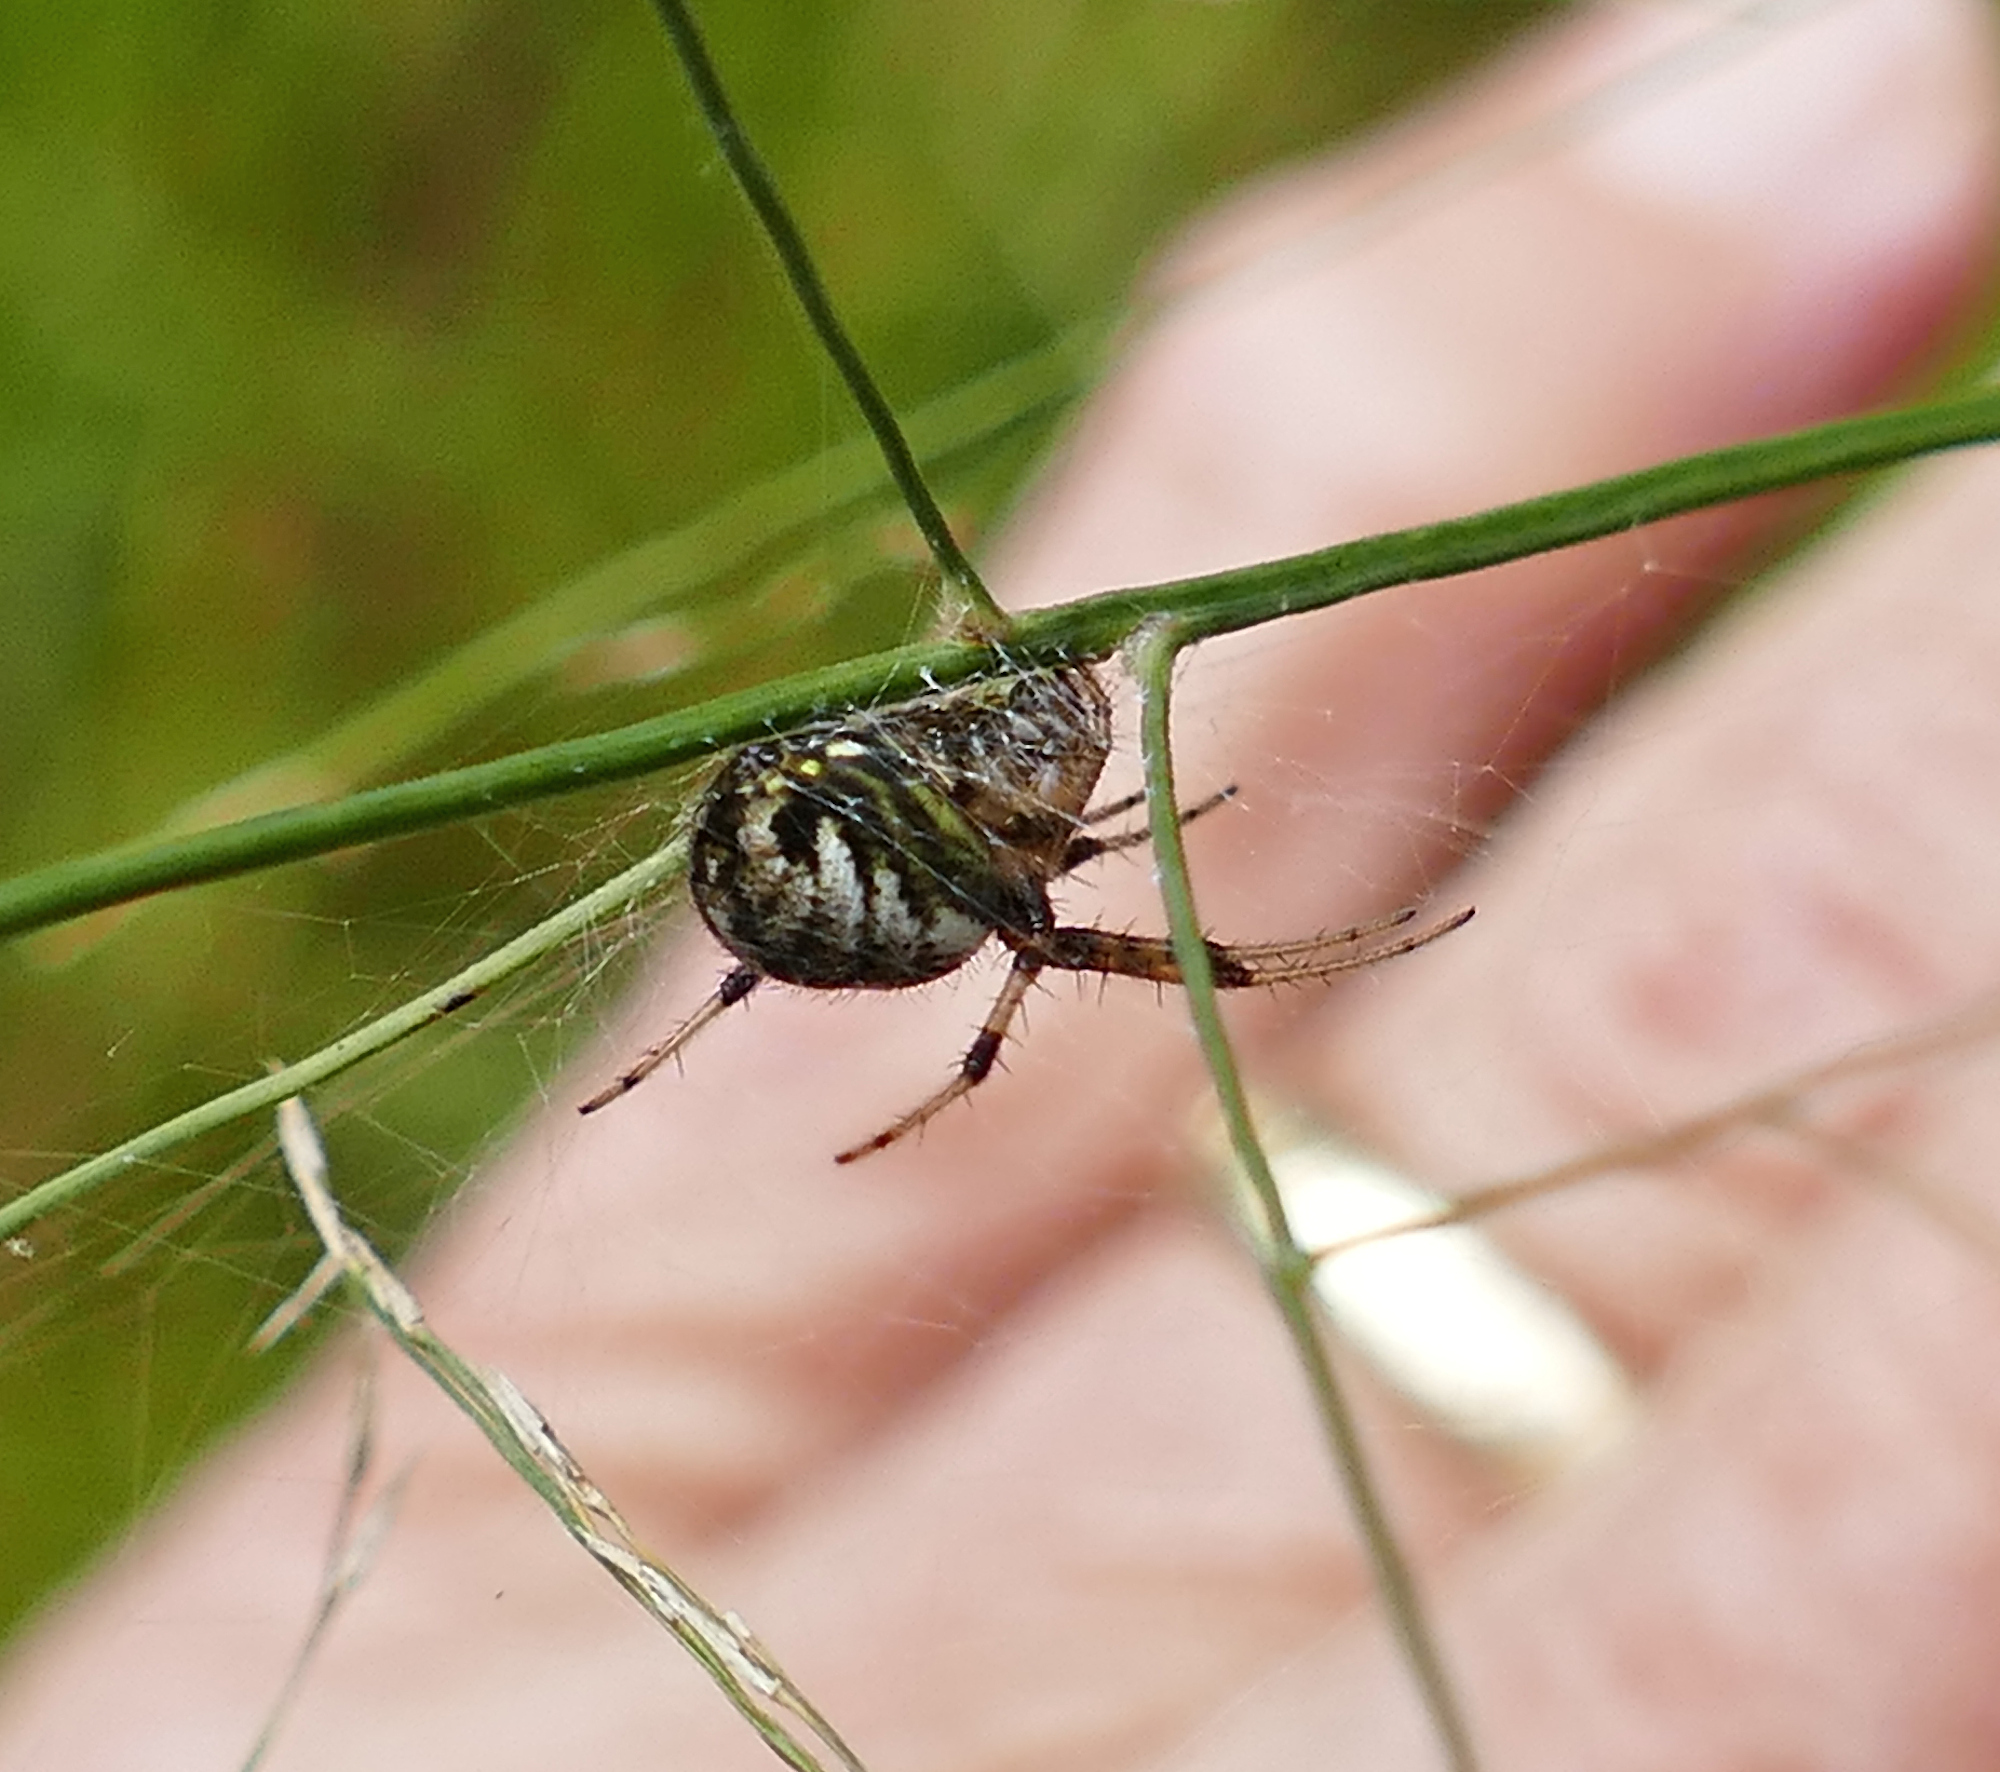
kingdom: Animalia
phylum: Arthropoda
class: Arachnida
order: Araneae
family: Araneidae
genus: Neoscona
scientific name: Neoscona arabesca
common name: Orb weavers
